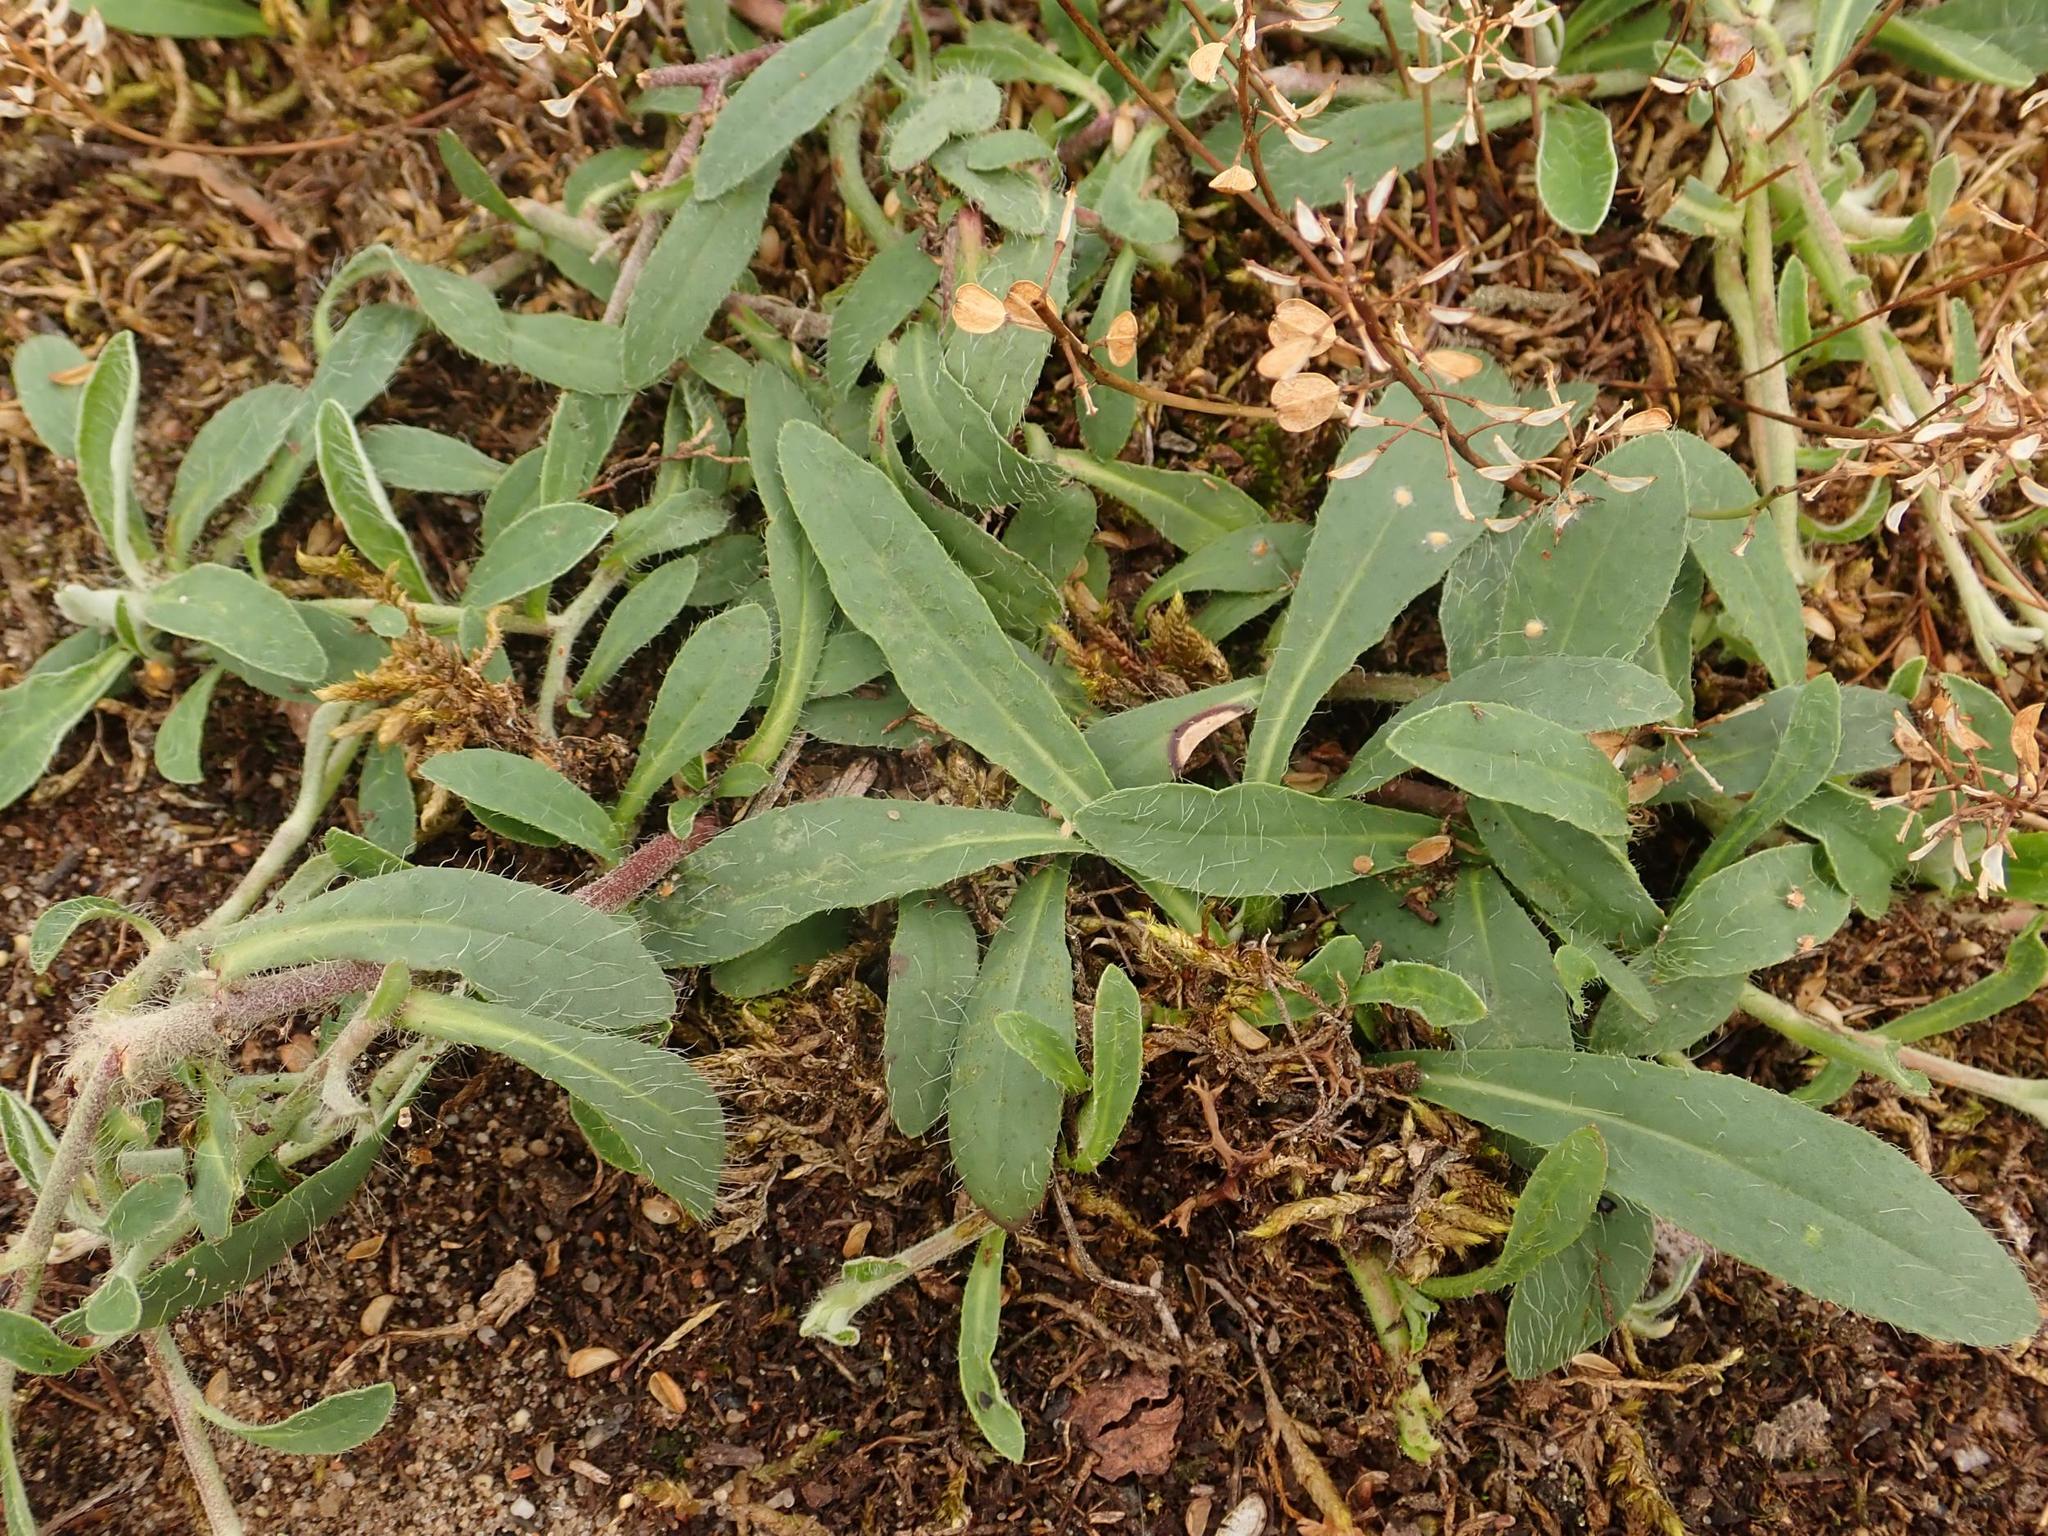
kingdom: Plantae
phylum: Tracheophyta
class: Magnoliopsida
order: Asterales
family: Asteraceae
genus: Pilosella
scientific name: Pilosella officinarum
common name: Mouse-ear hawkweed
